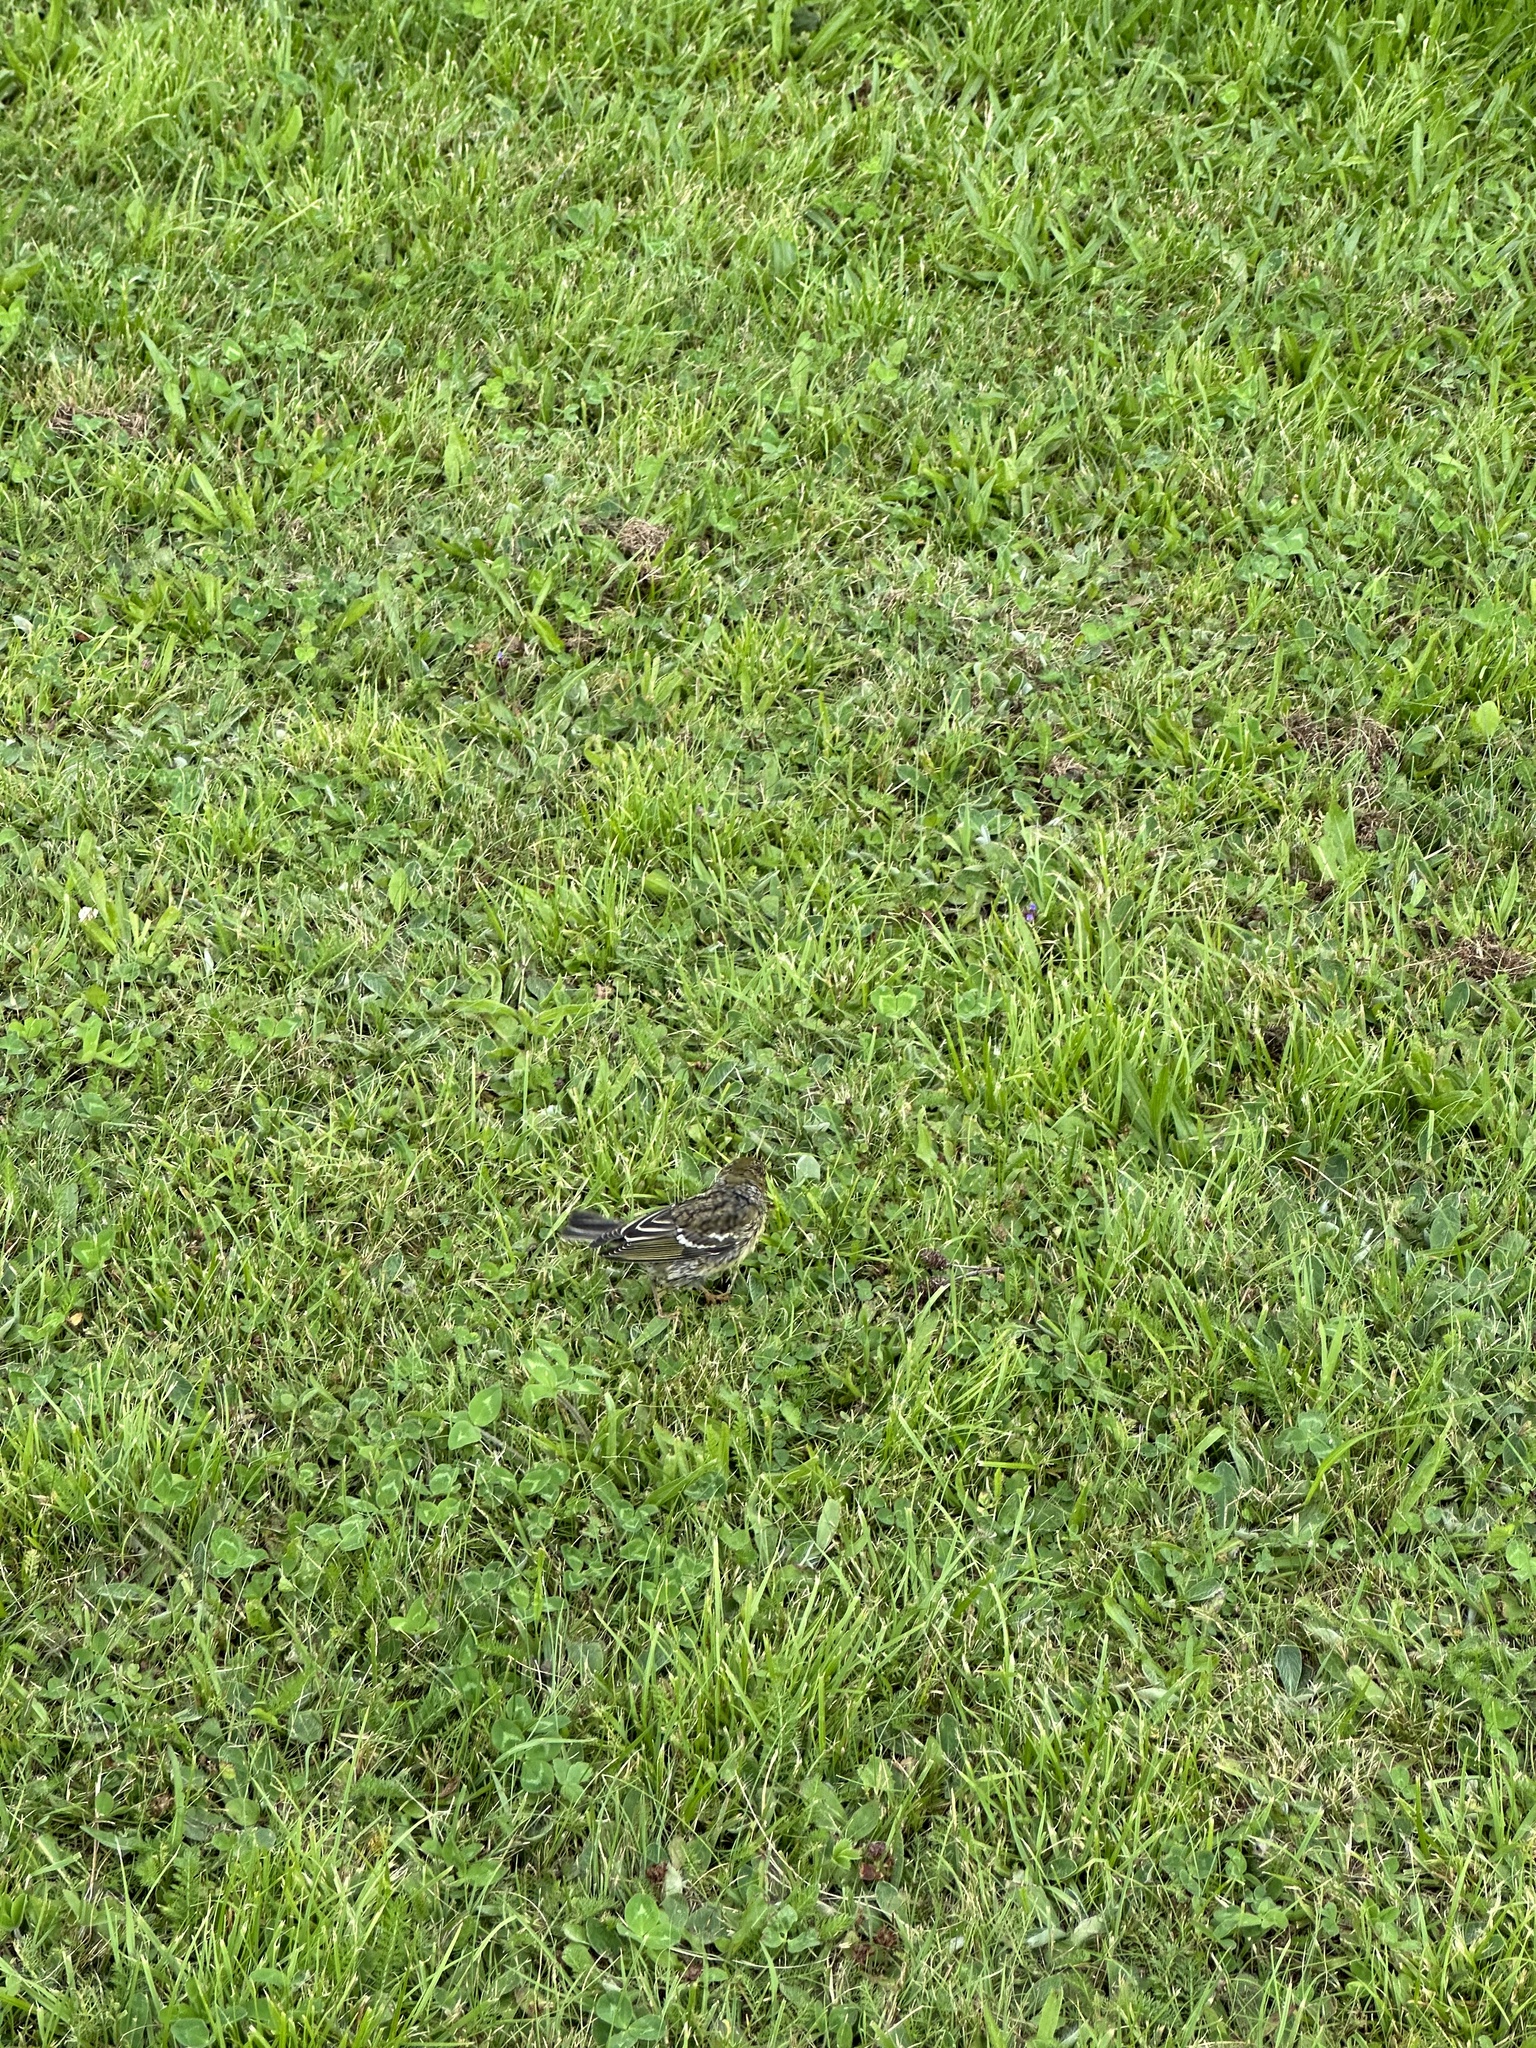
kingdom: Animalia
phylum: Chordata
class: Aves
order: Passeriformes
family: Parulidae
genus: Setophaga
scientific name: Setophaga striata
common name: Blackpoll warbler
